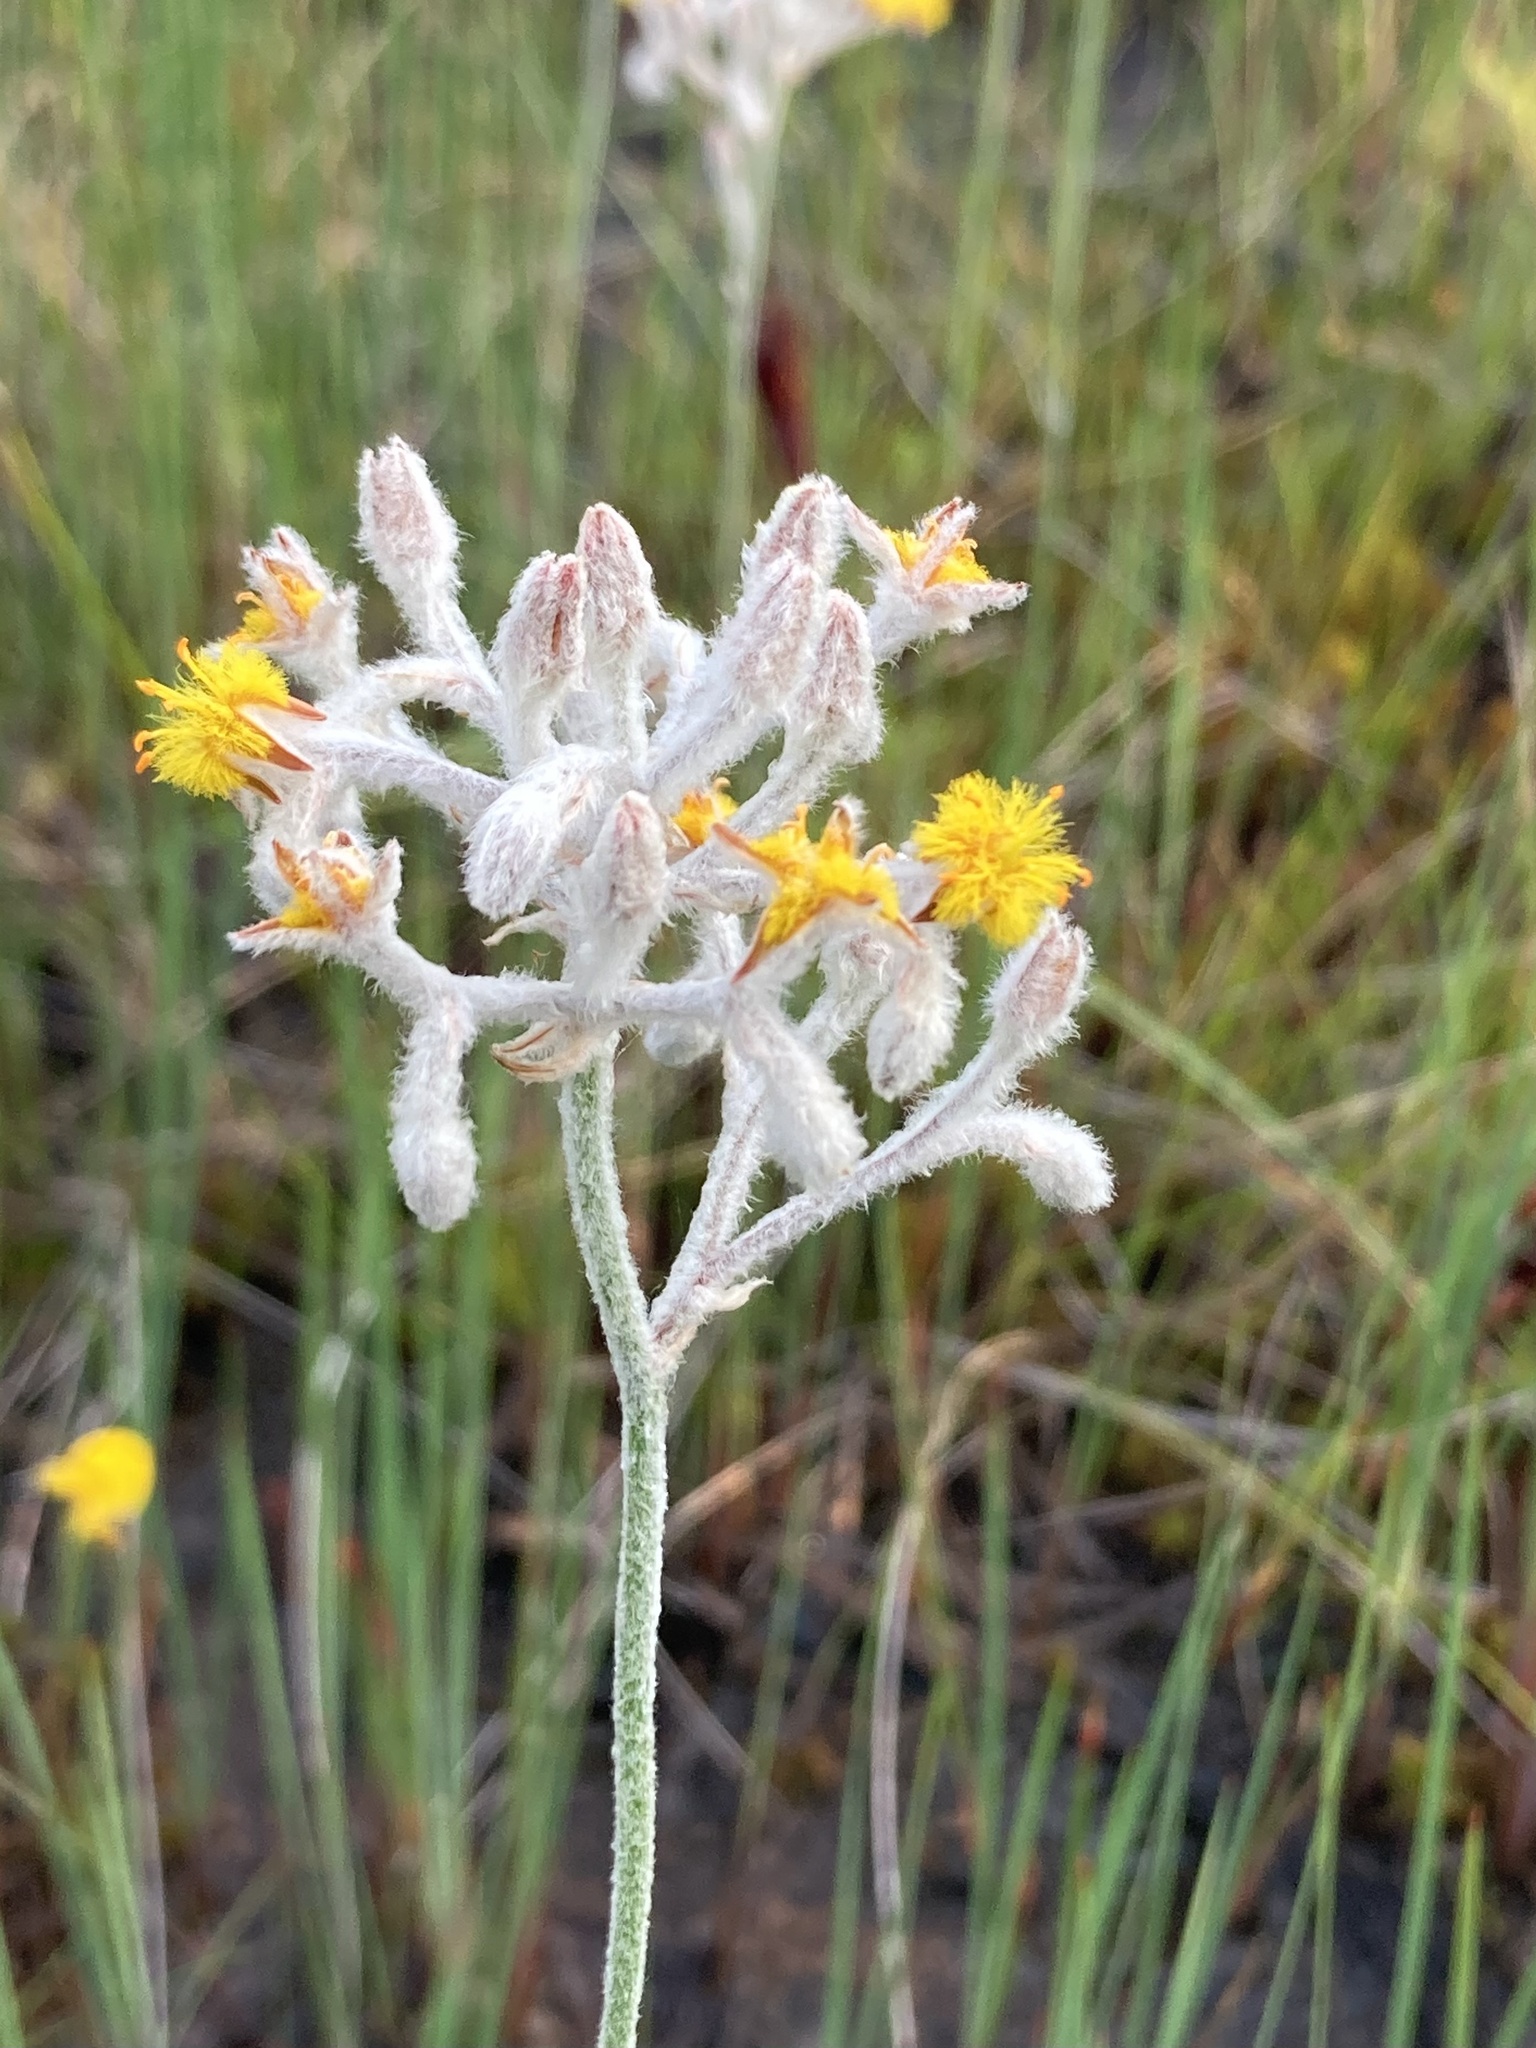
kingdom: Plantae
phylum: Tracheophyta
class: Liliopsida
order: Dioscoreales
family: Nartheciaceae
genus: Lophiola
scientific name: Lophiola aurea
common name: Golden-crest
